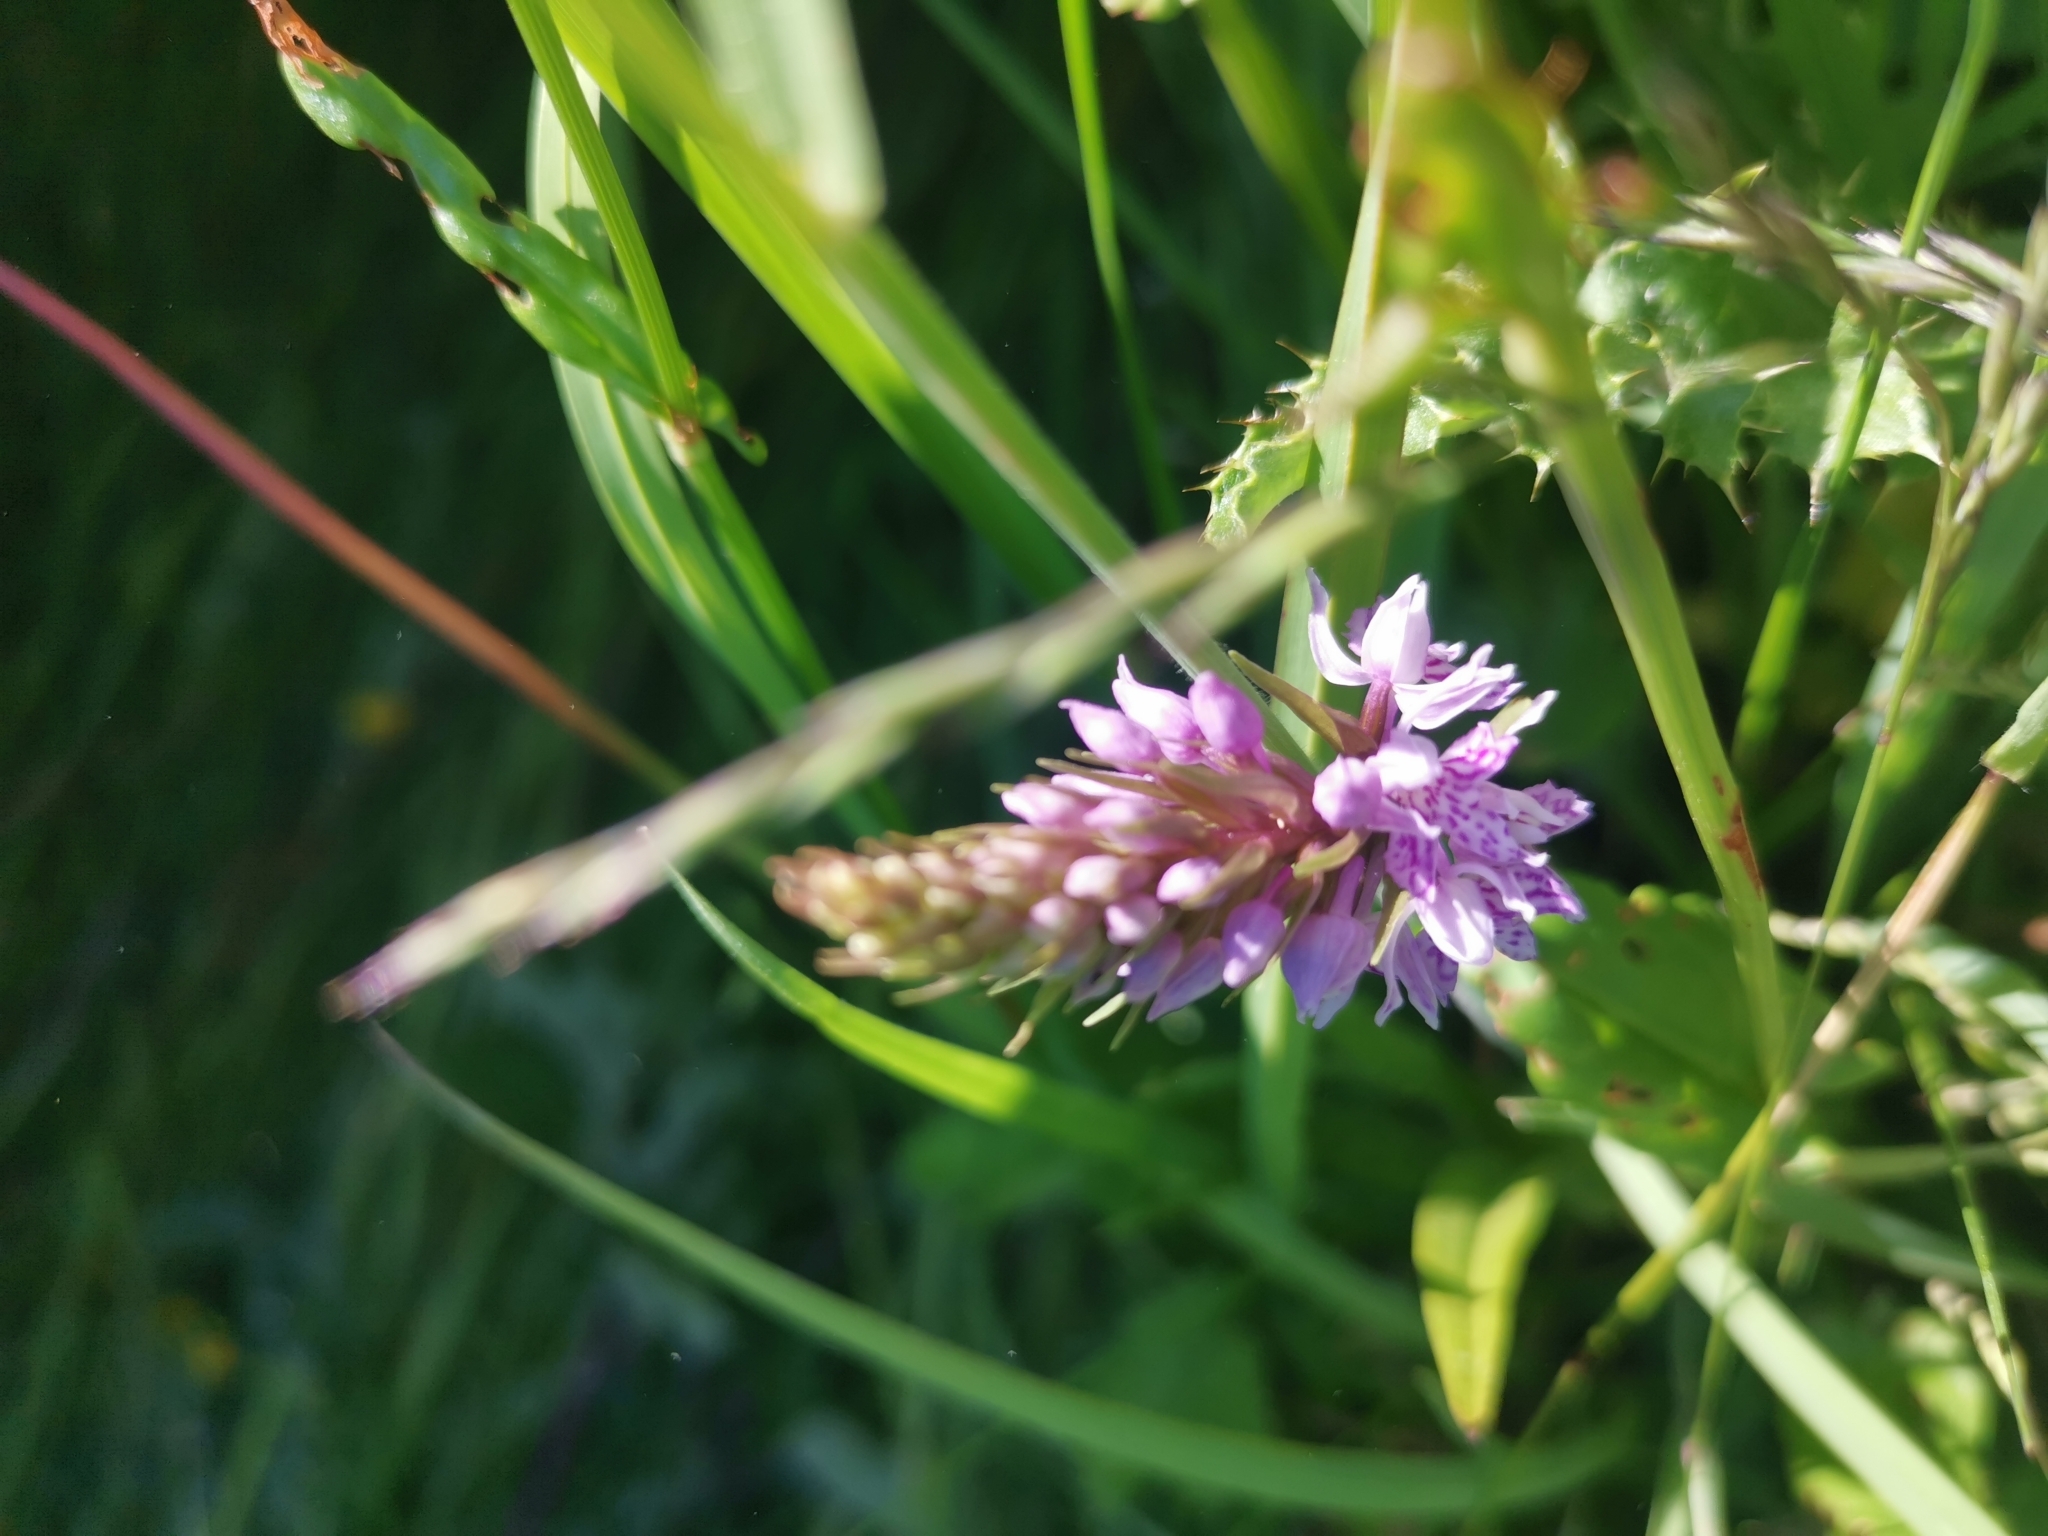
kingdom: Plantae
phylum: Tracheophyta
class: Liliopsida
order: Asparagales
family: Orchidaceae
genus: Dactylorhiza
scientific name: Dactylorhiza maculata
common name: Heath spotted-orchid
